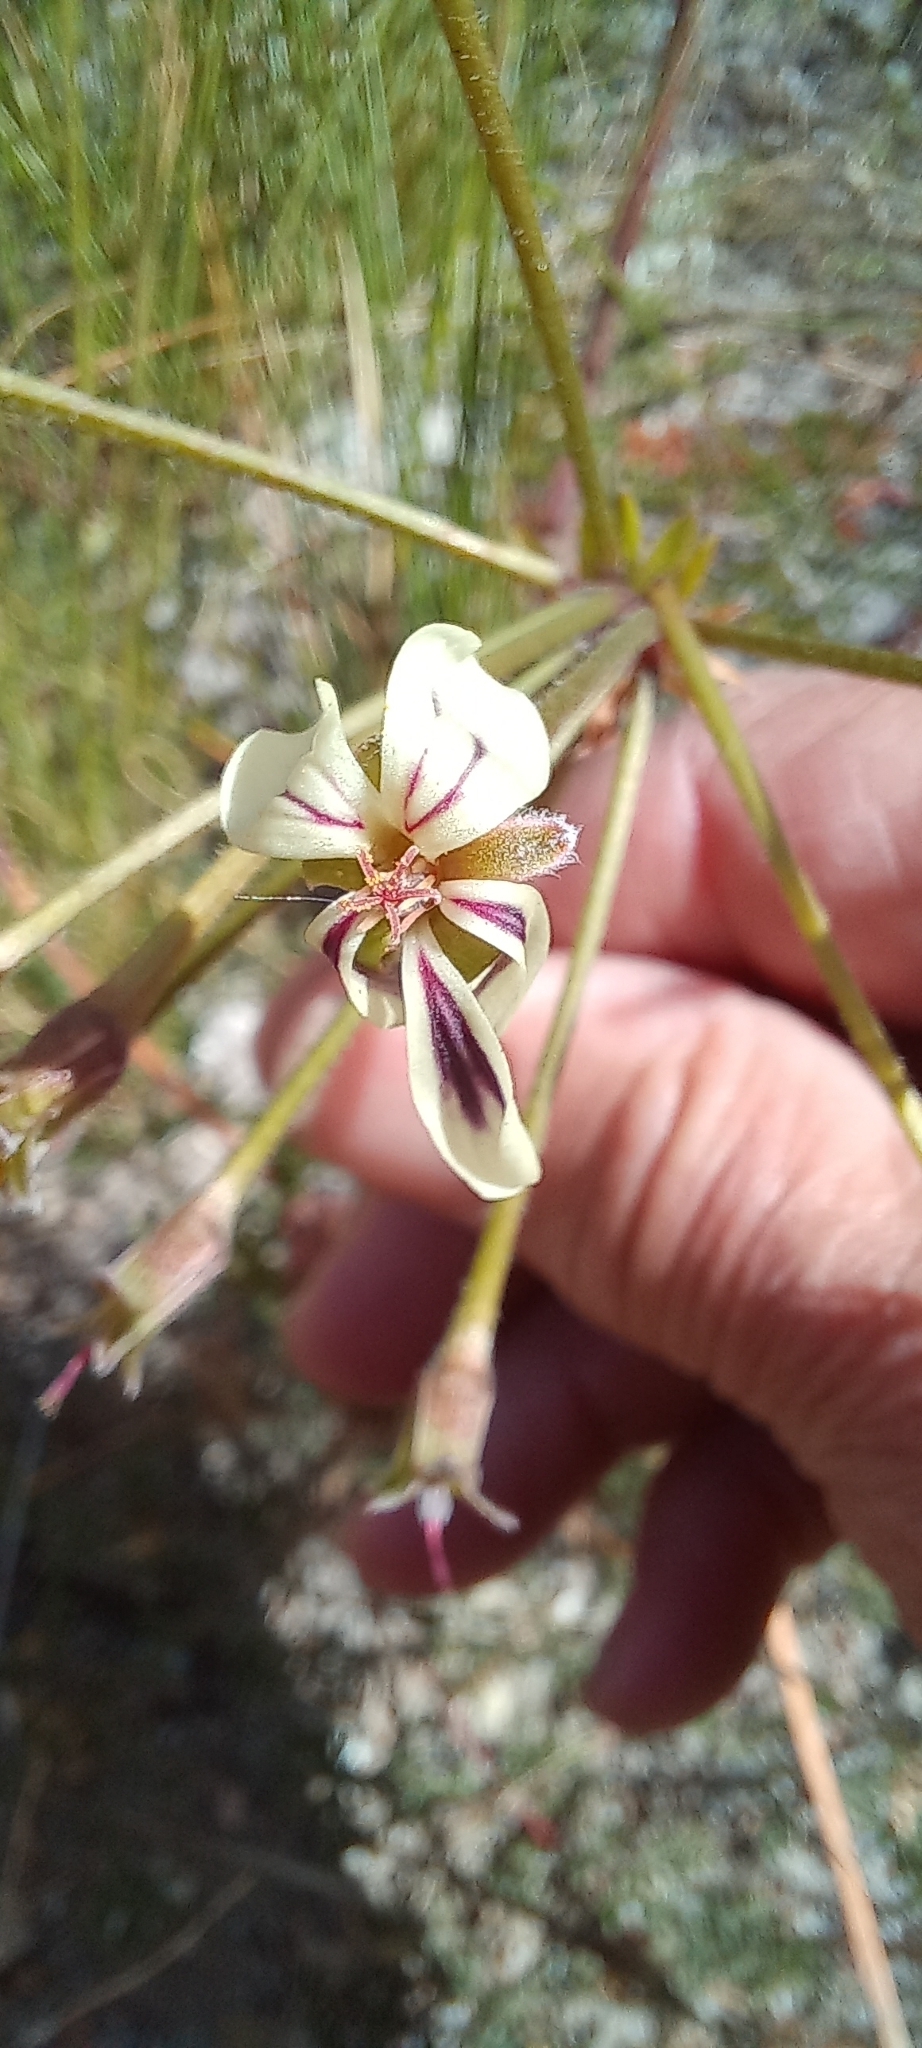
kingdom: Plantae
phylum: Tracheophyta
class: Magnoliopsida
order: Geraniales
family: Geraniaceae
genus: Pelargonium
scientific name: Pelargonium triste
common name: Night-scent pelargonium
